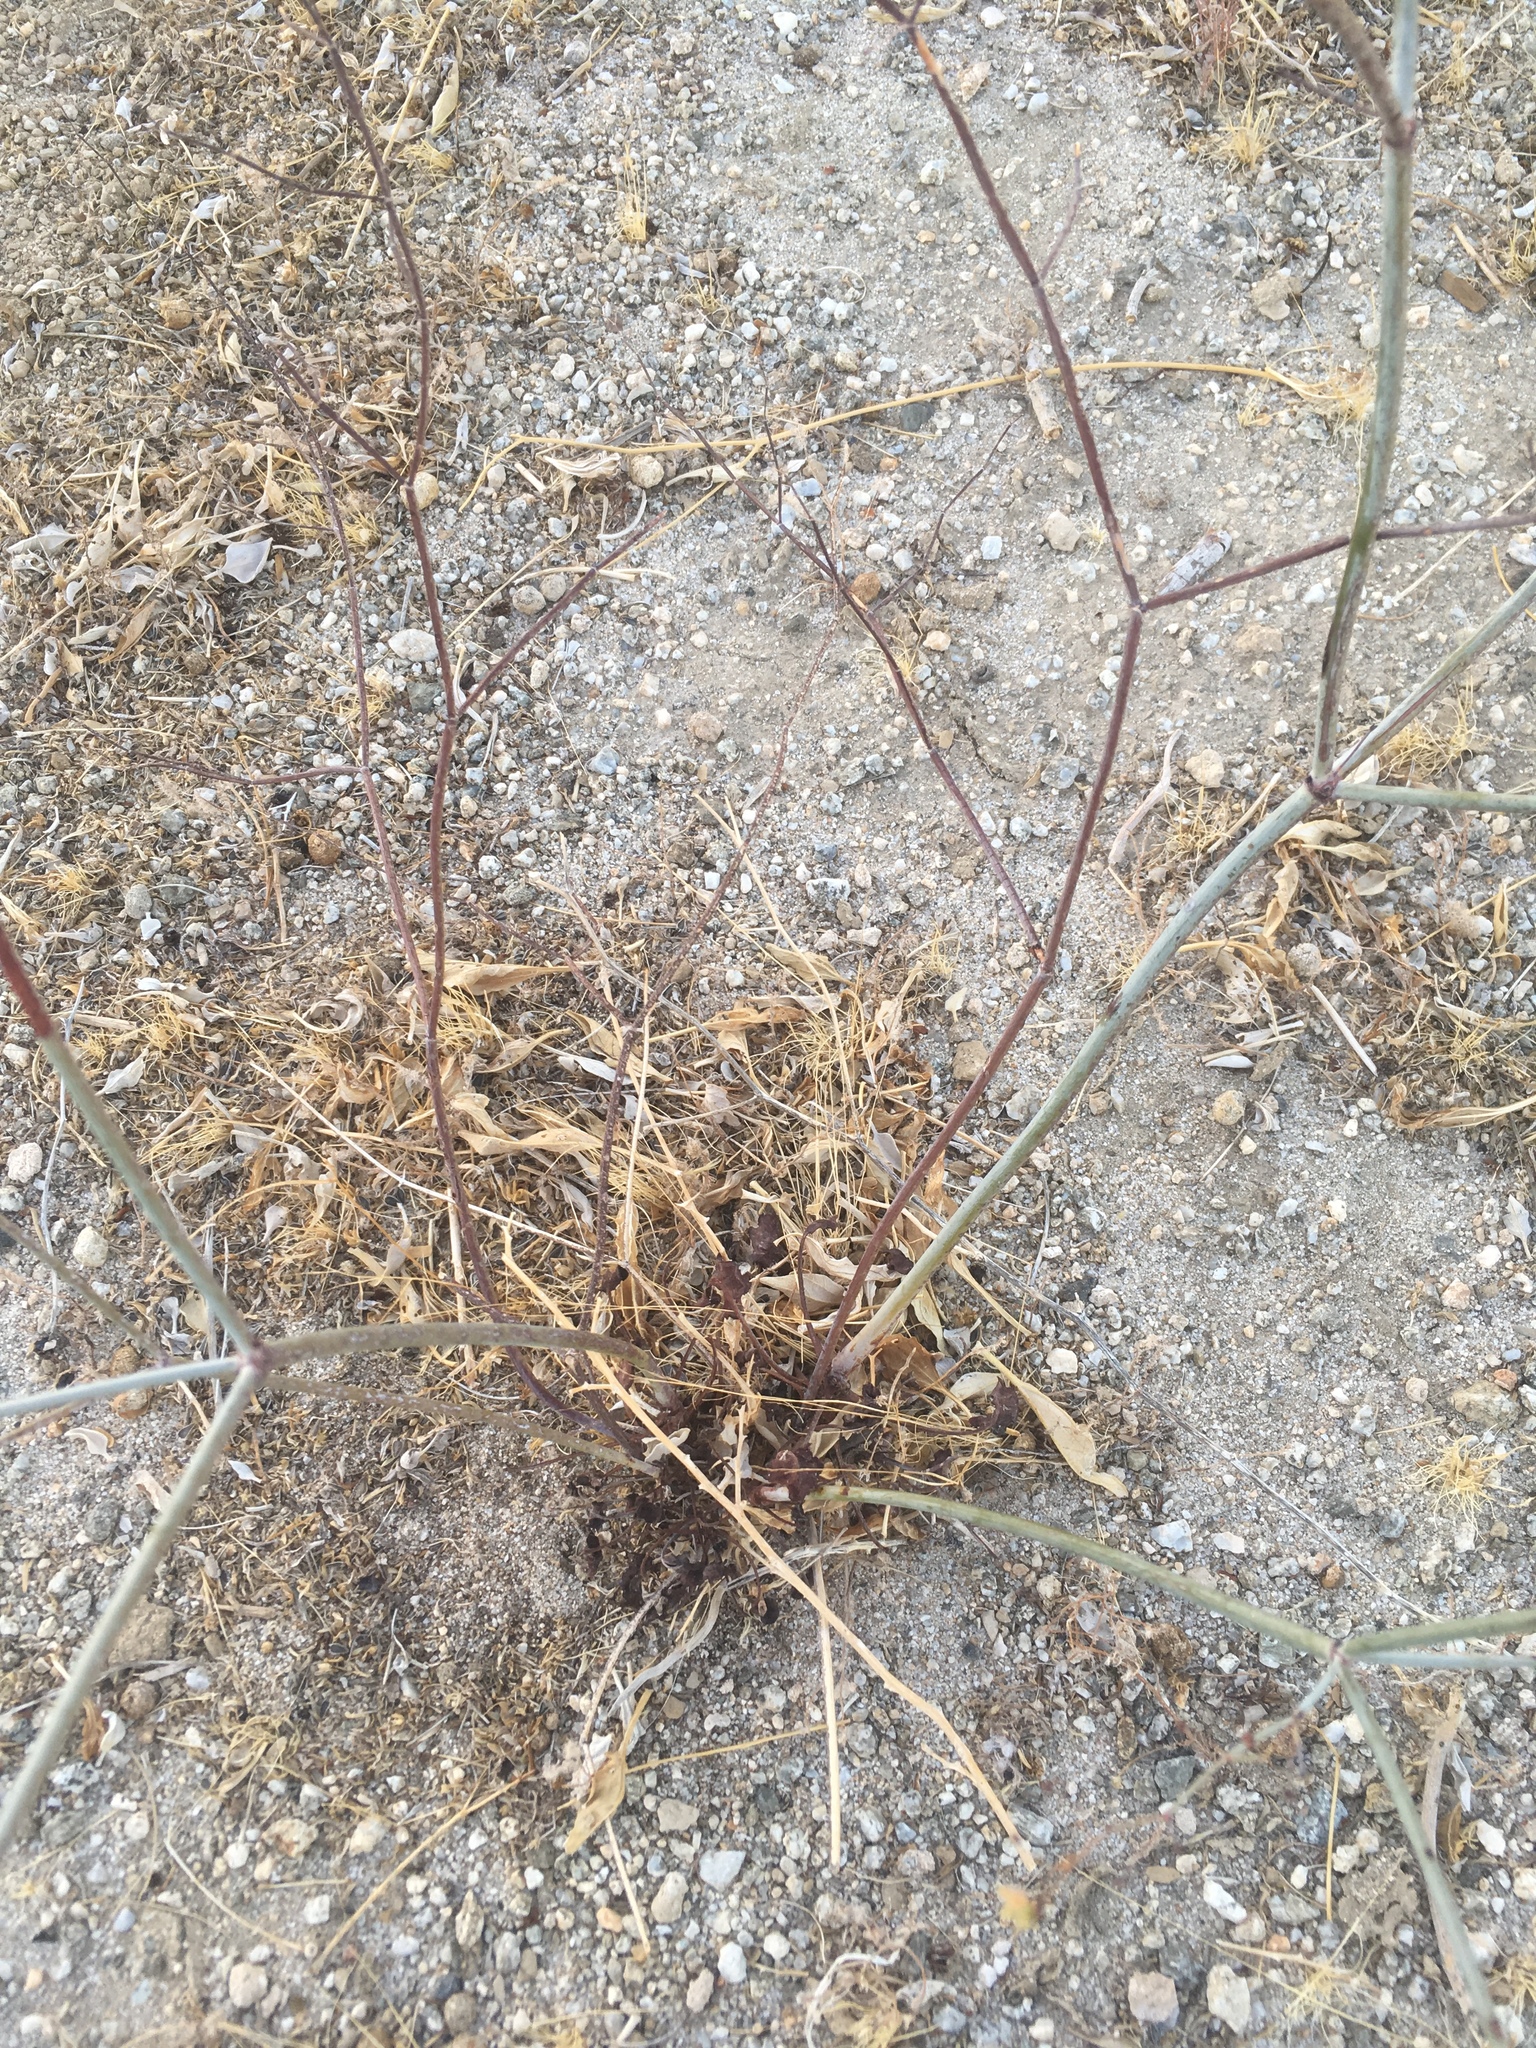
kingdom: Plantae
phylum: Tracheophyta
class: Magnoliopsida
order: Caryophyllales
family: Polygonaceae
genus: Eriogonum
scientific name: Eriogonum inflatum
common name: Desert trumpet
